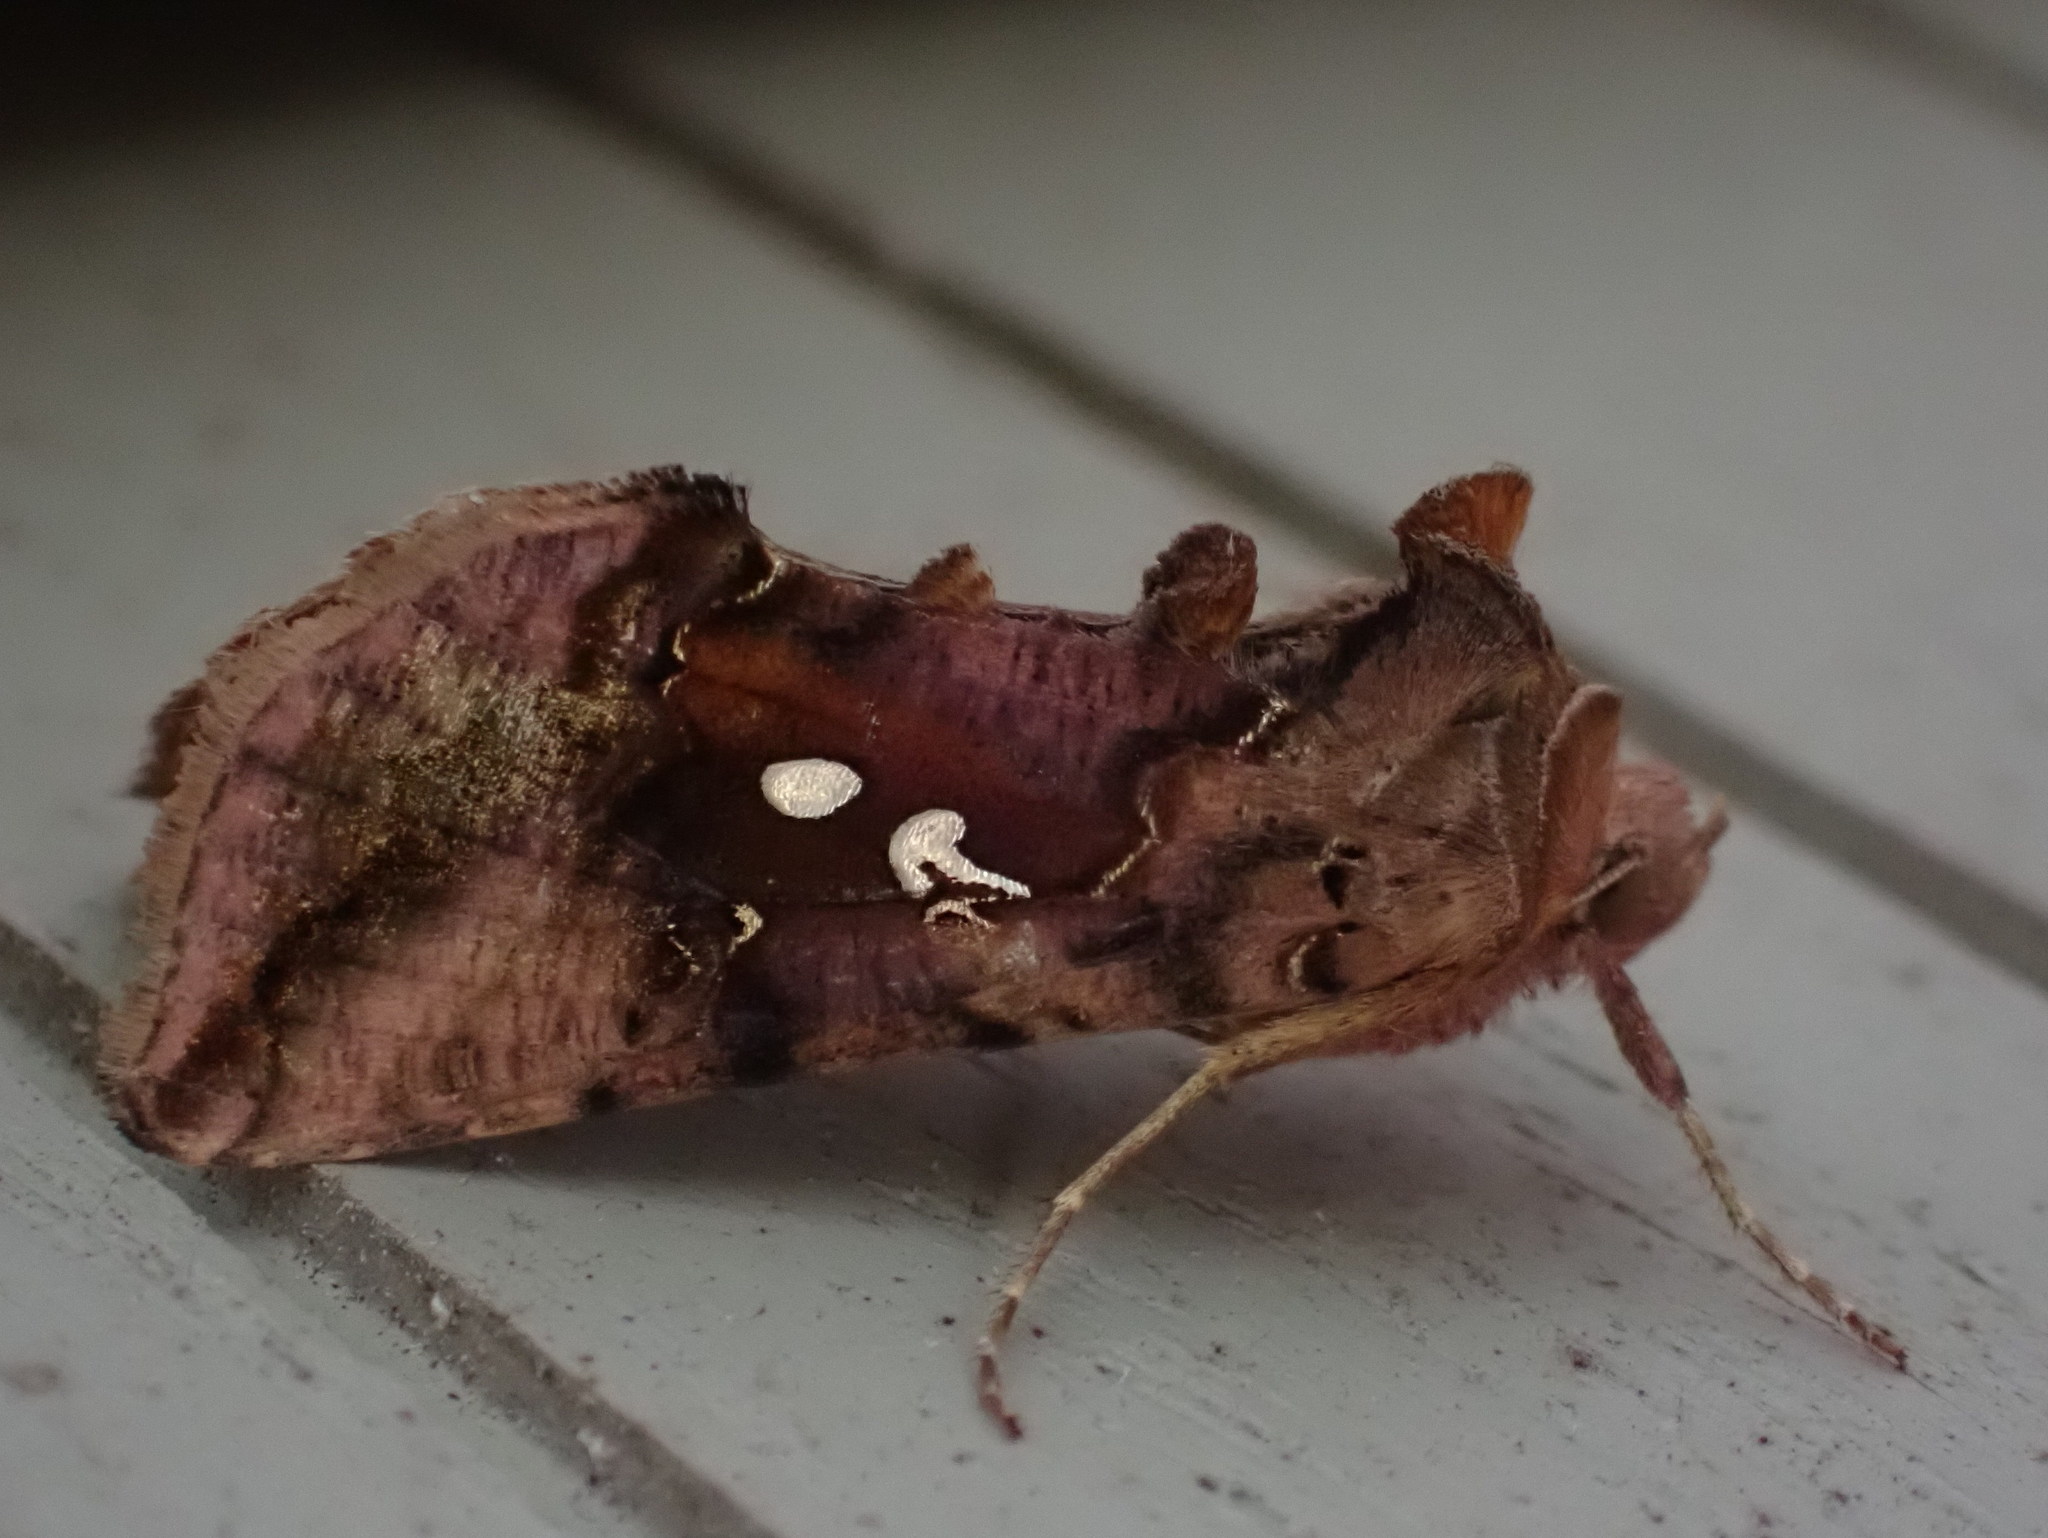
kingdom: Animalia
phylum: Arthropoda
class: Insecta
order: Lepidoptera
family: Noctuidae
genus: Autographa
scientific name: Autographa bimaculata
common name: Double-spotted spangle
